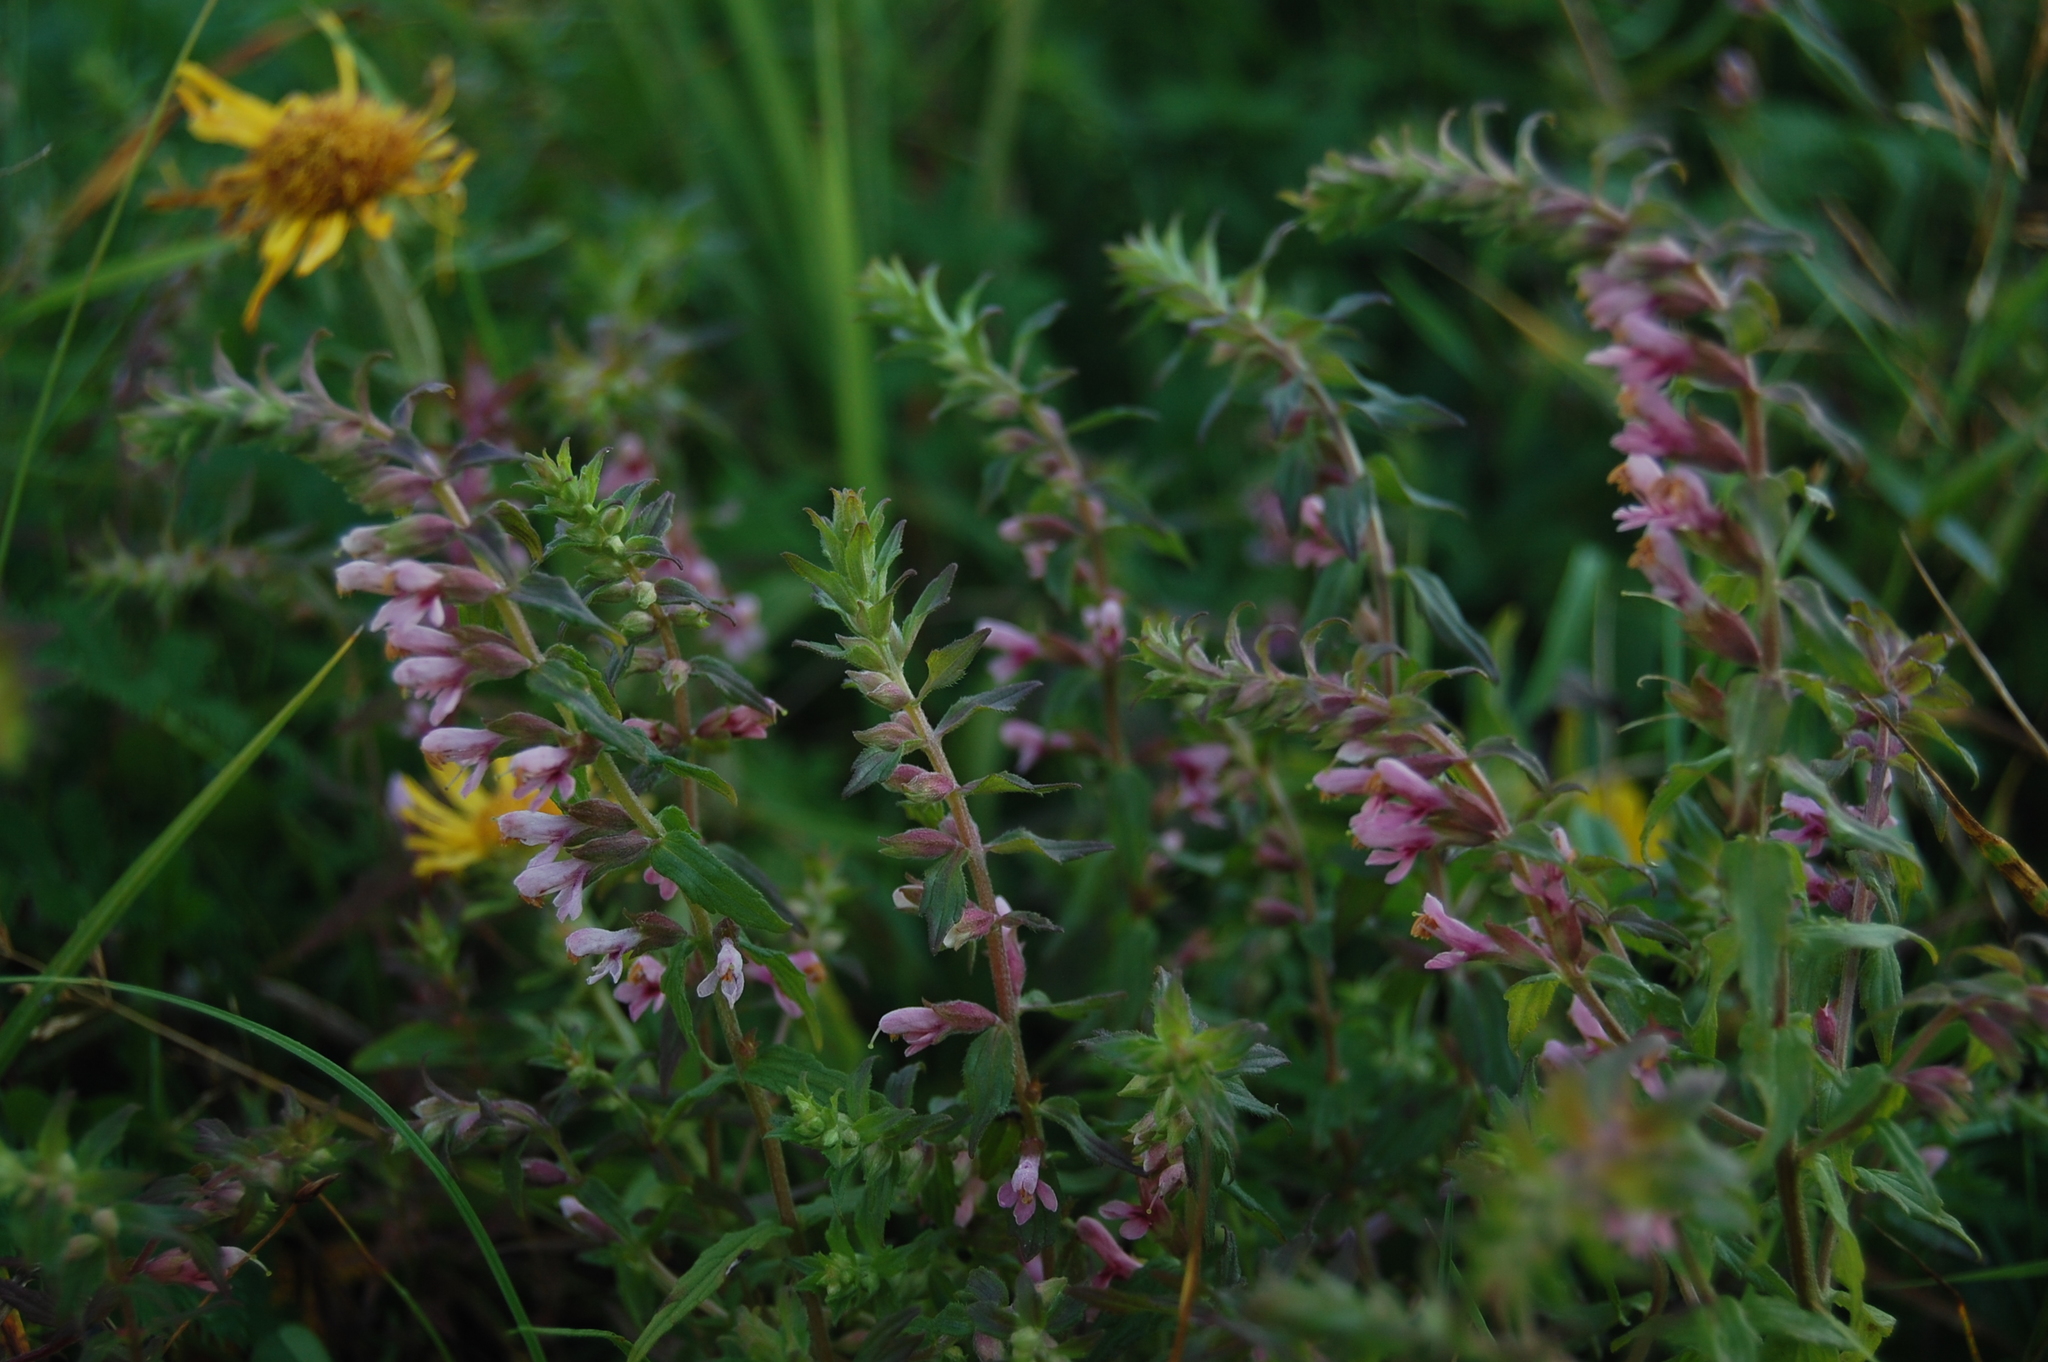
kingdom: Plantae
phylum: Tracheophyta
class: Magnoliopsida
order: Lamiales
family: Orobanchaceae
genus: Odontites
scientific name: Odontites vulgaris
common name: Broomrape
